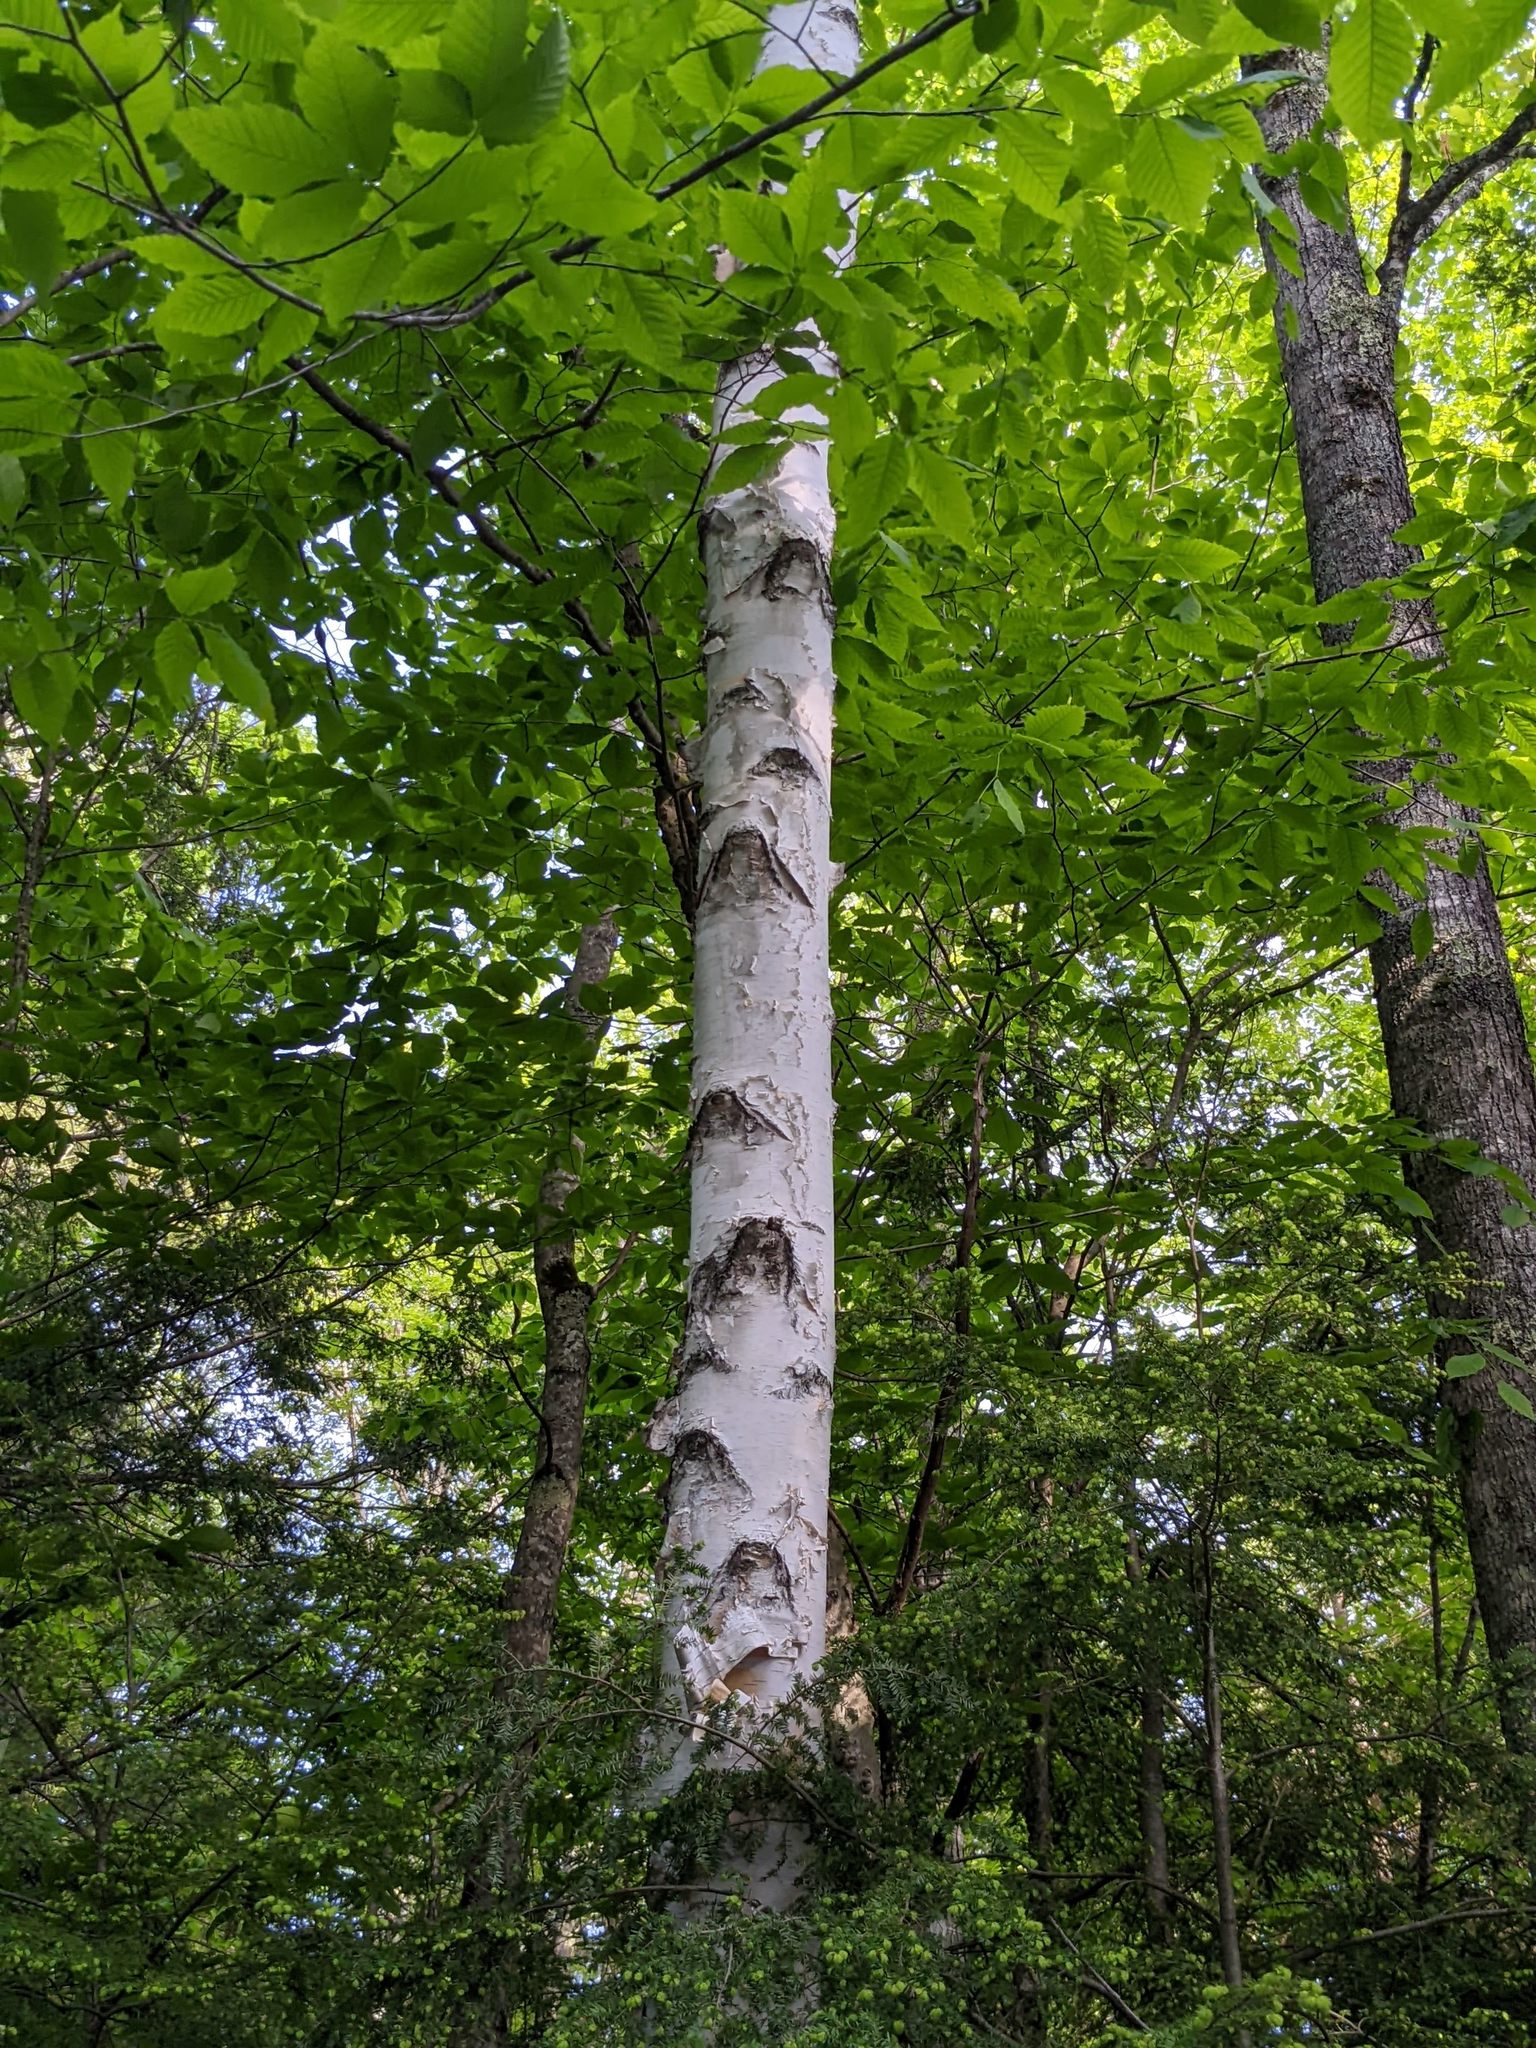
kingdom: Plantae
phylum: Tracheophyta
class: Magnoliopsida
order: Fagales
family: Betulaceae
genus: Betula
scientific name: Betula papyrifera
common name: Paper birch
